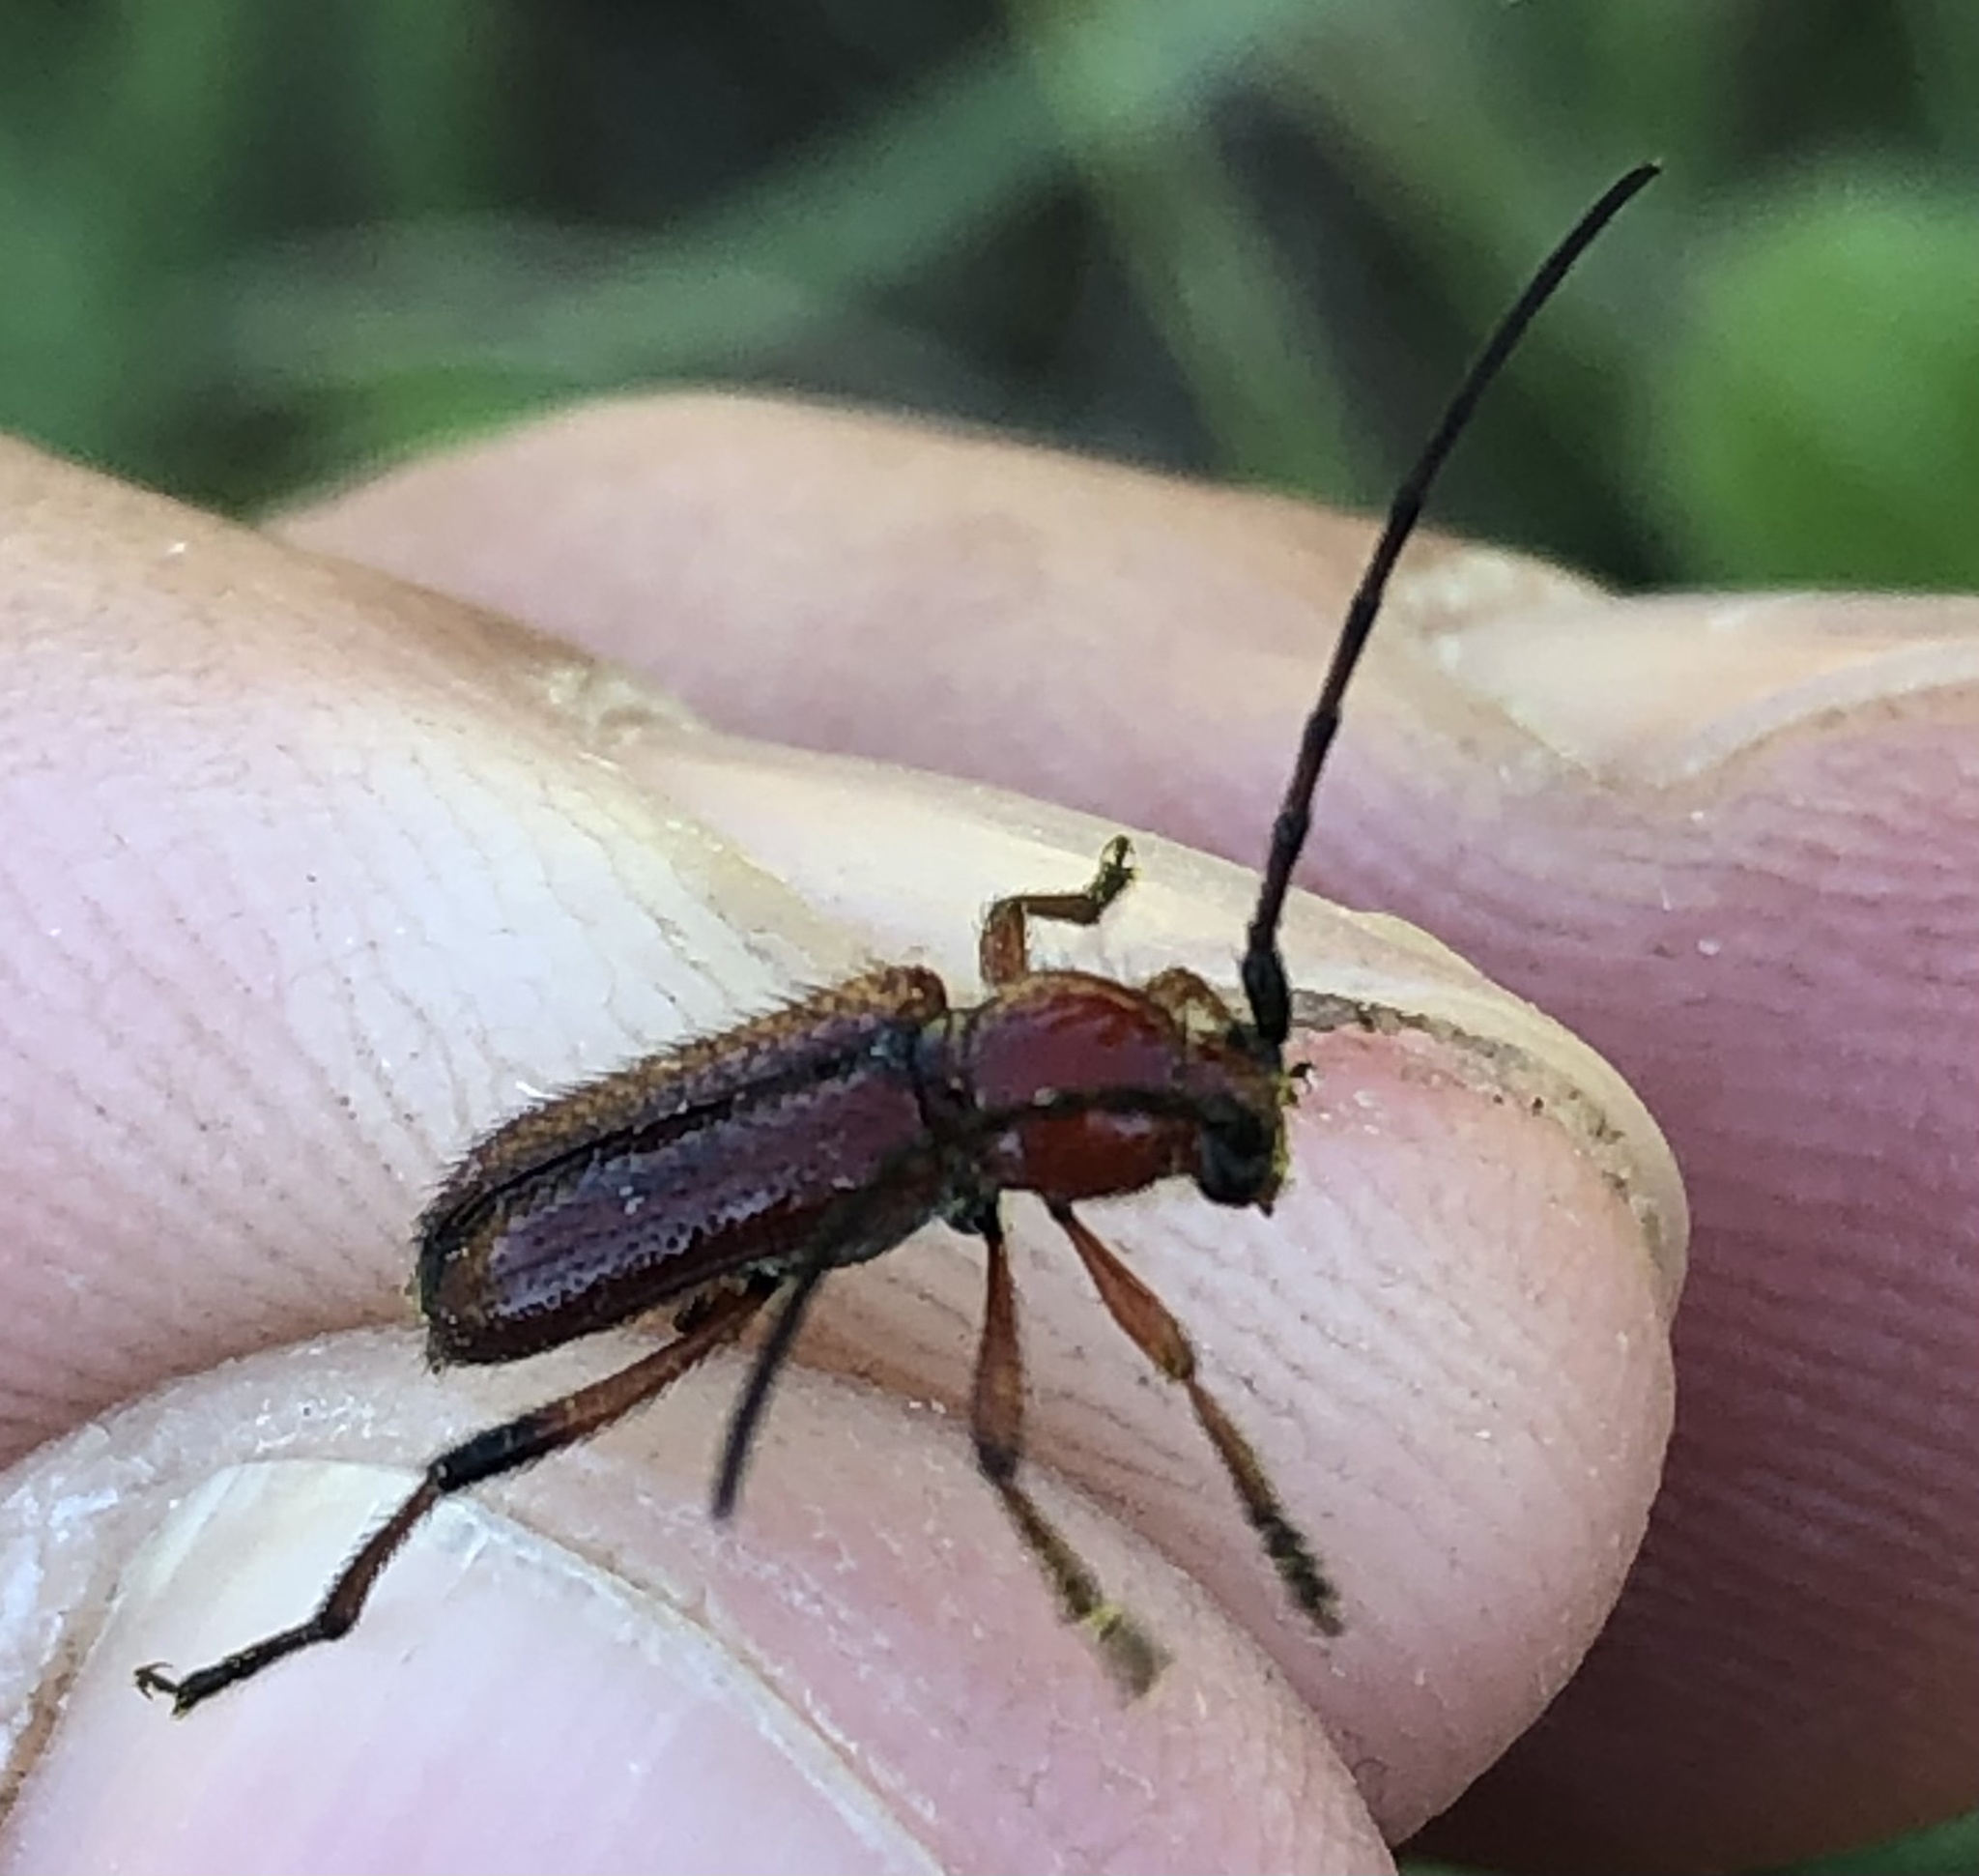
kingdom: Animalia
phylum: Arthropoda
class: Insecta
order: Coleoptera
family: Cerambycidae
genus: Batyle
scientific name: Batyle suturalis
